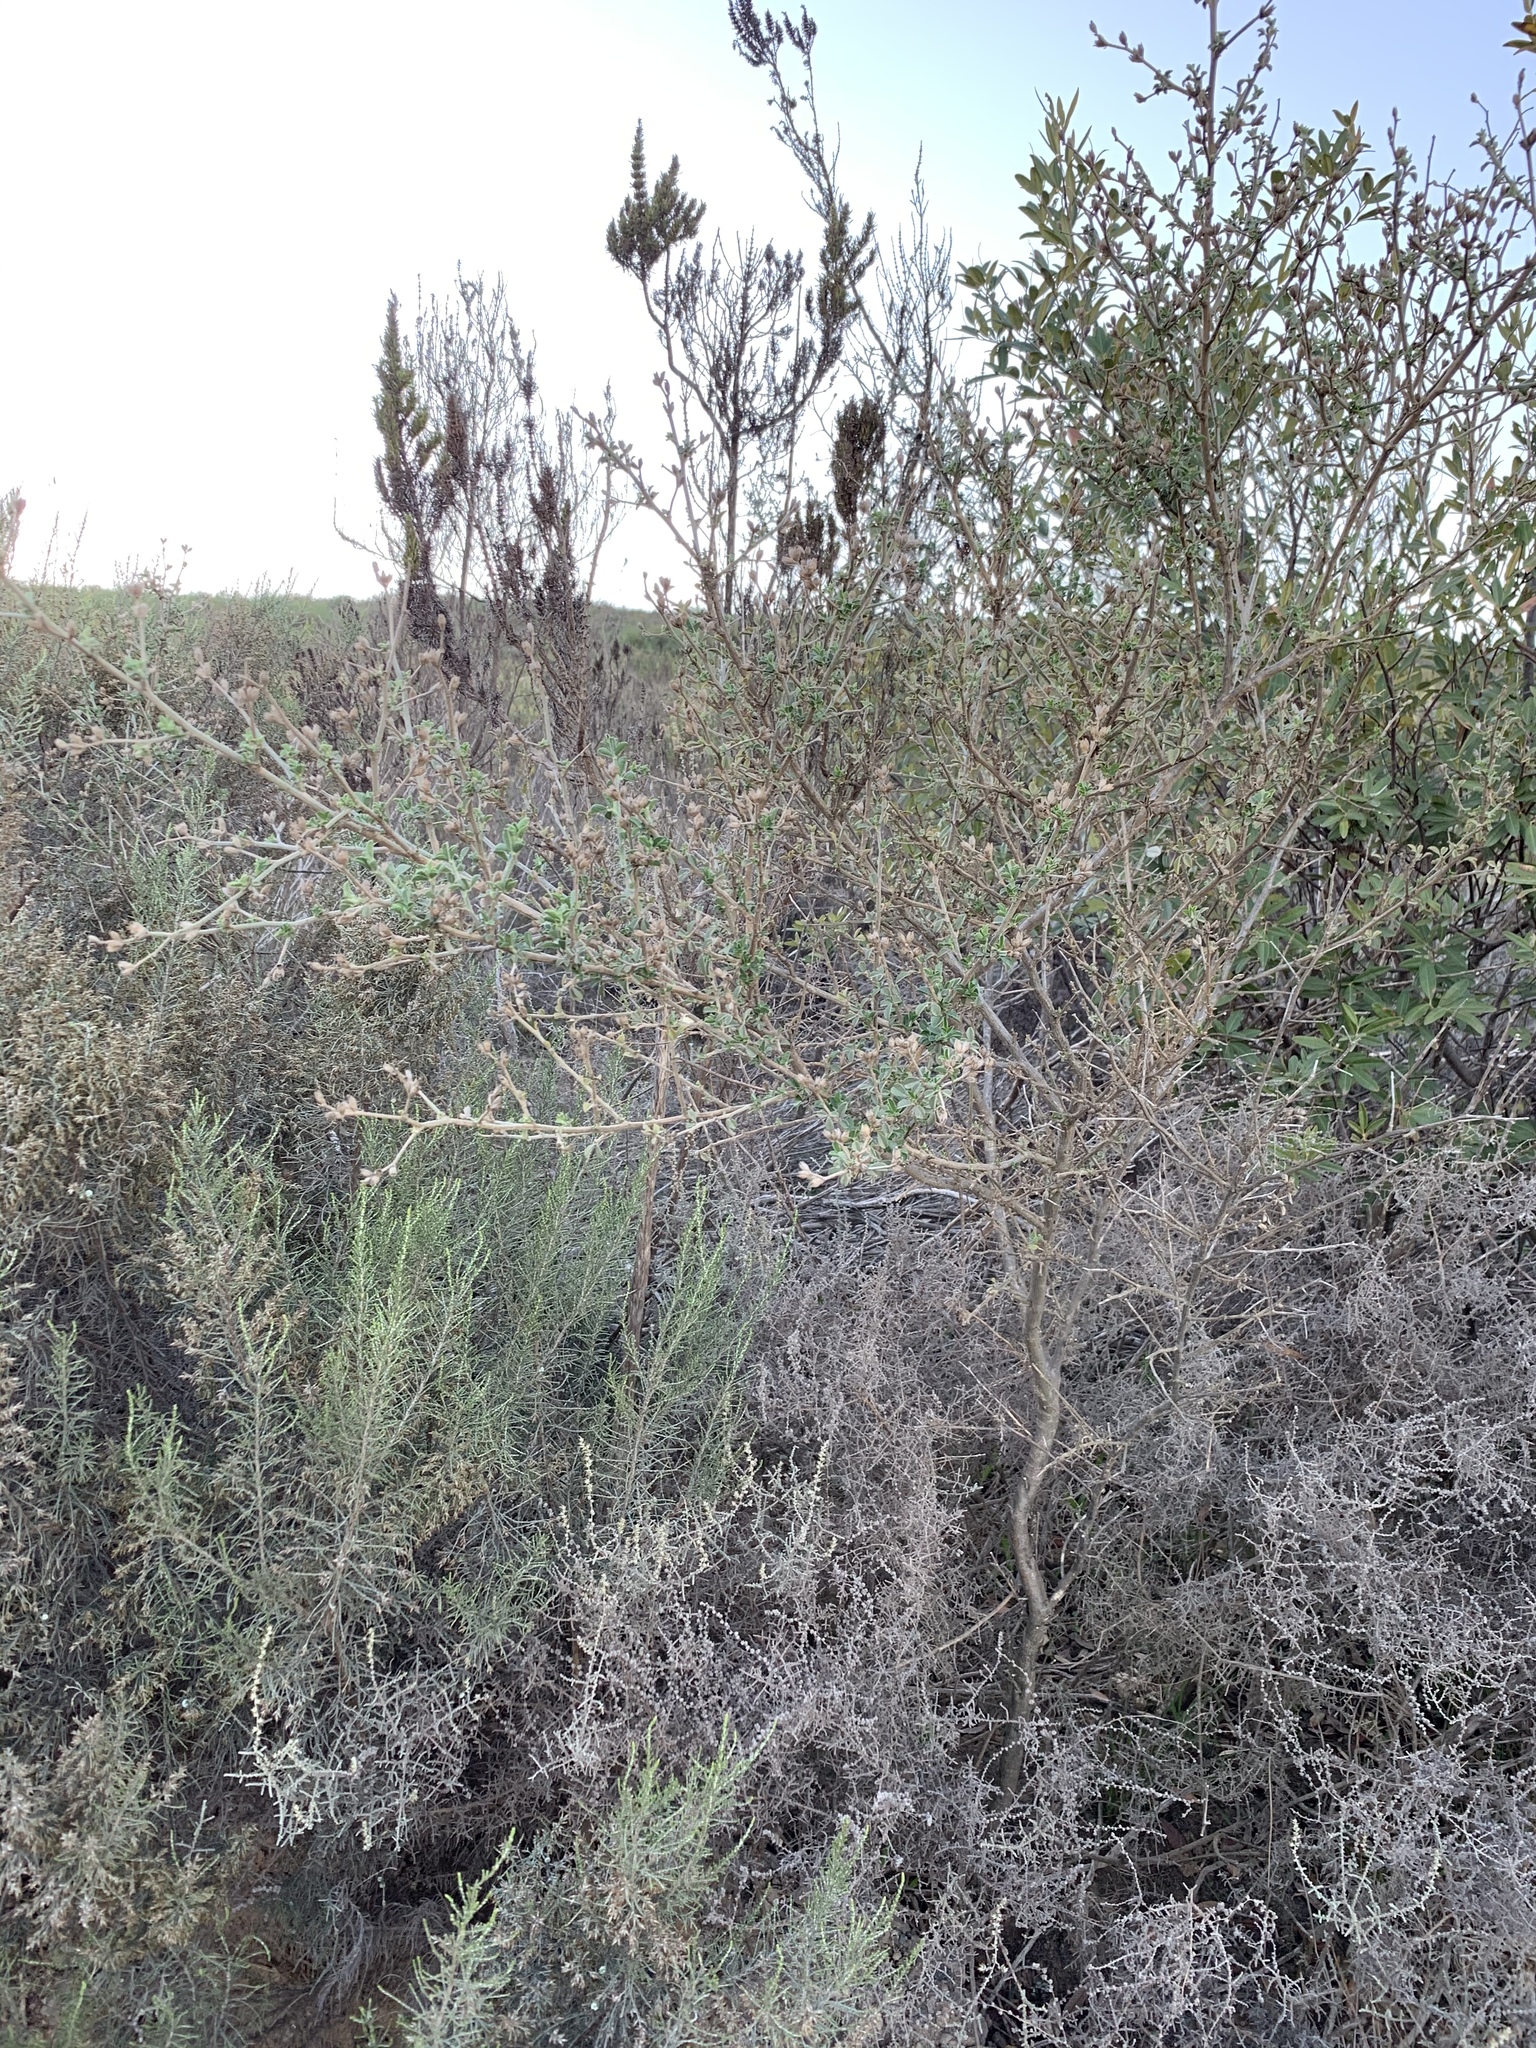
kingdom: Plantae
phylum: Tracheophyta
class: Magnoliopsida
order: Fabales
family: Fabaceae
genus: Psoralea
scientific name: Psoralea hirta
